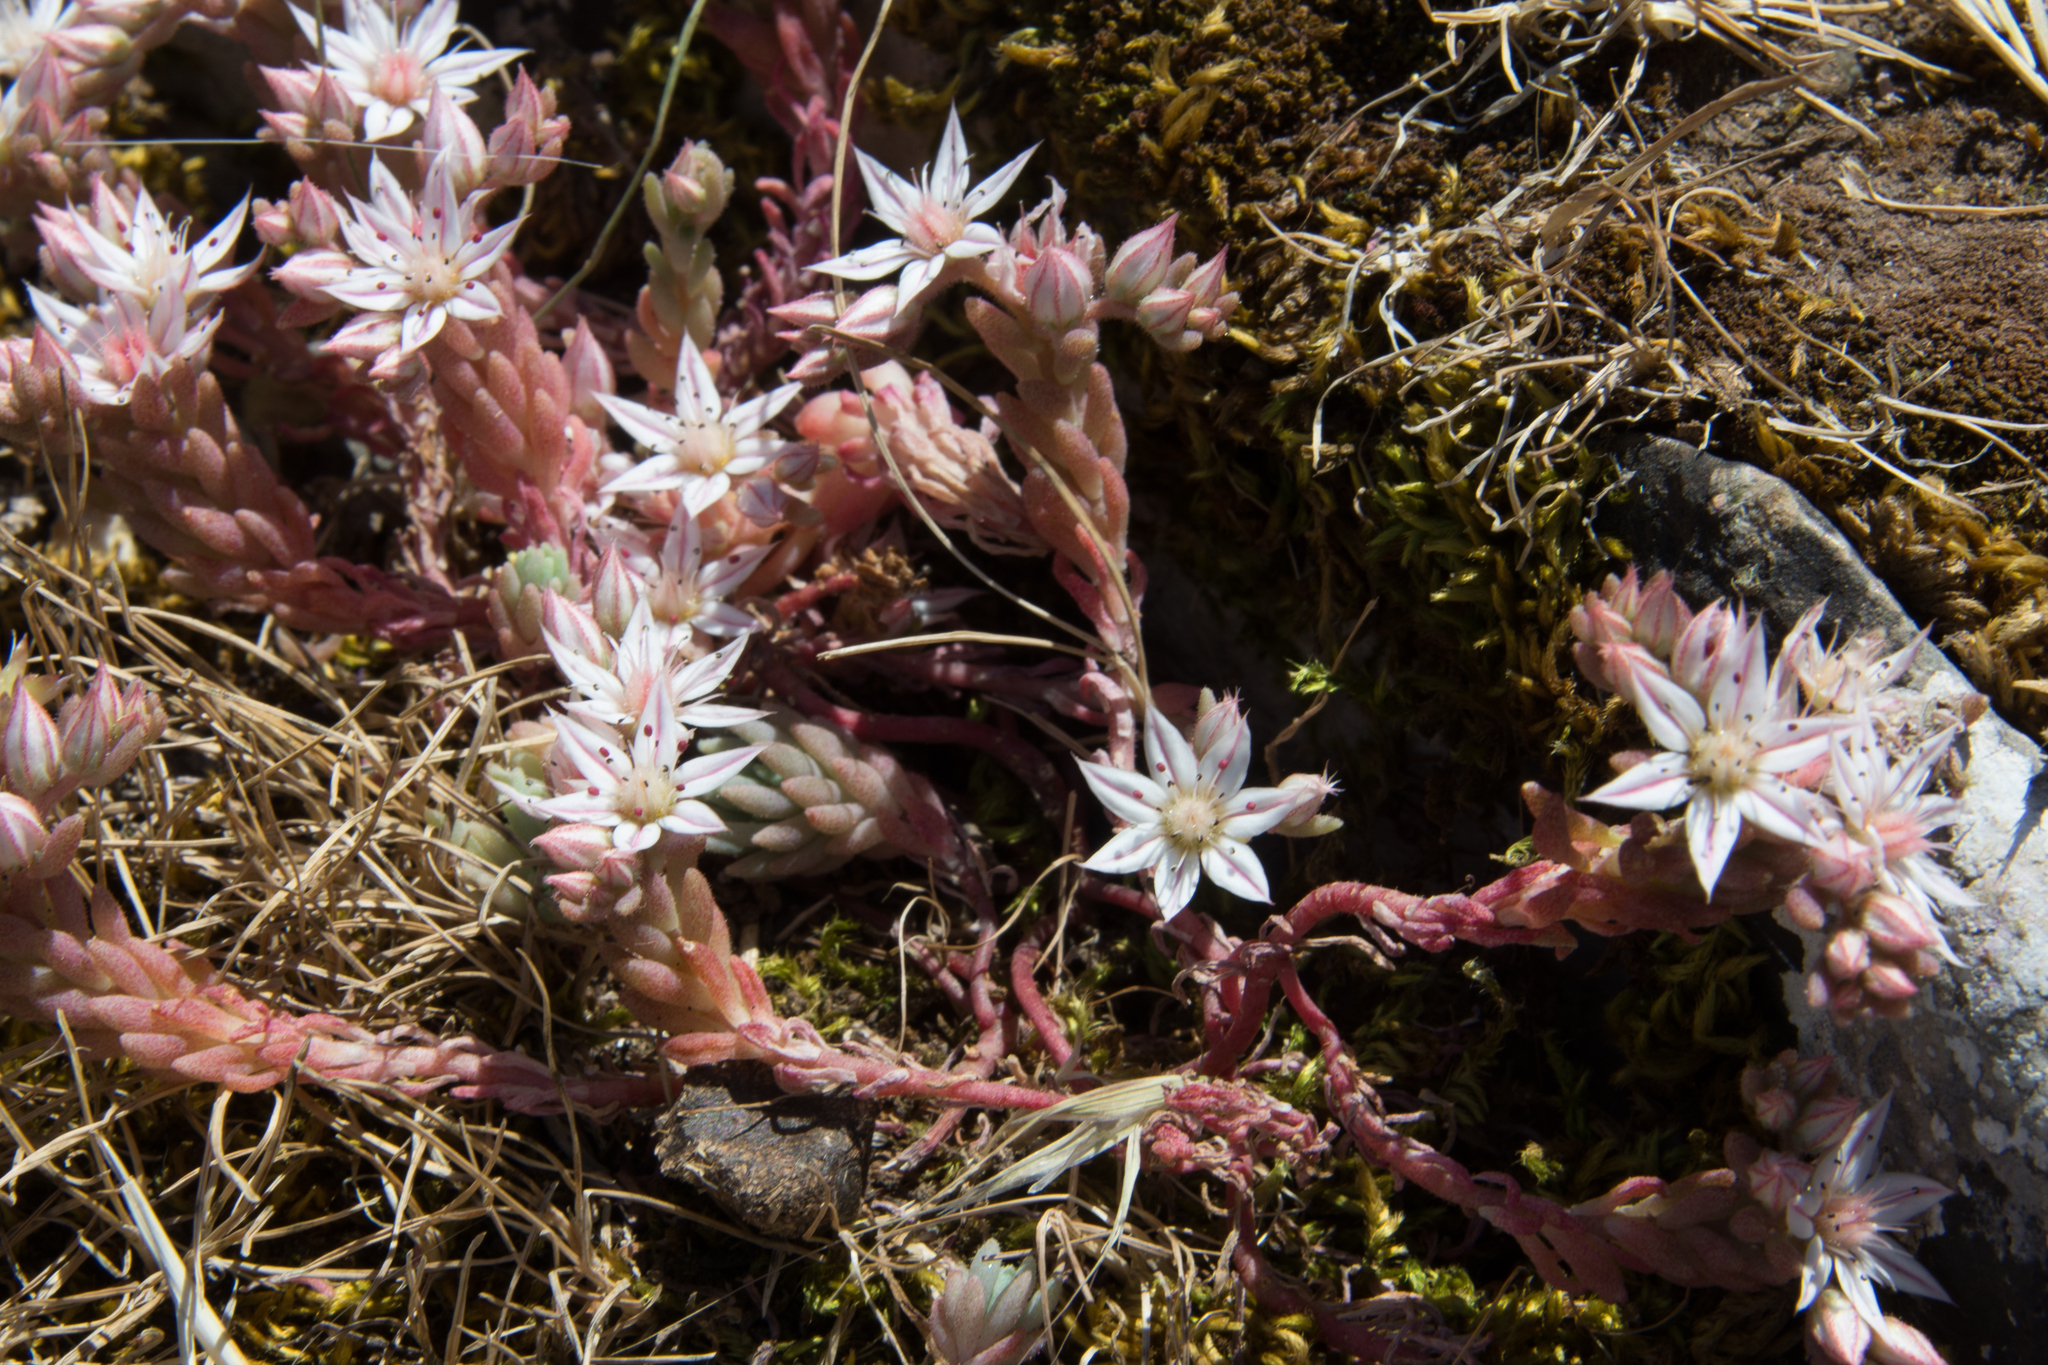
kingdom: Plantae
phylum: Tracheophyta
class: Magnoliopsida
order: Saxifragales
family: Crassulaceae
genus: Sedum
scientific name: Sedum hispanicum
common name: Spanish stonecrop
